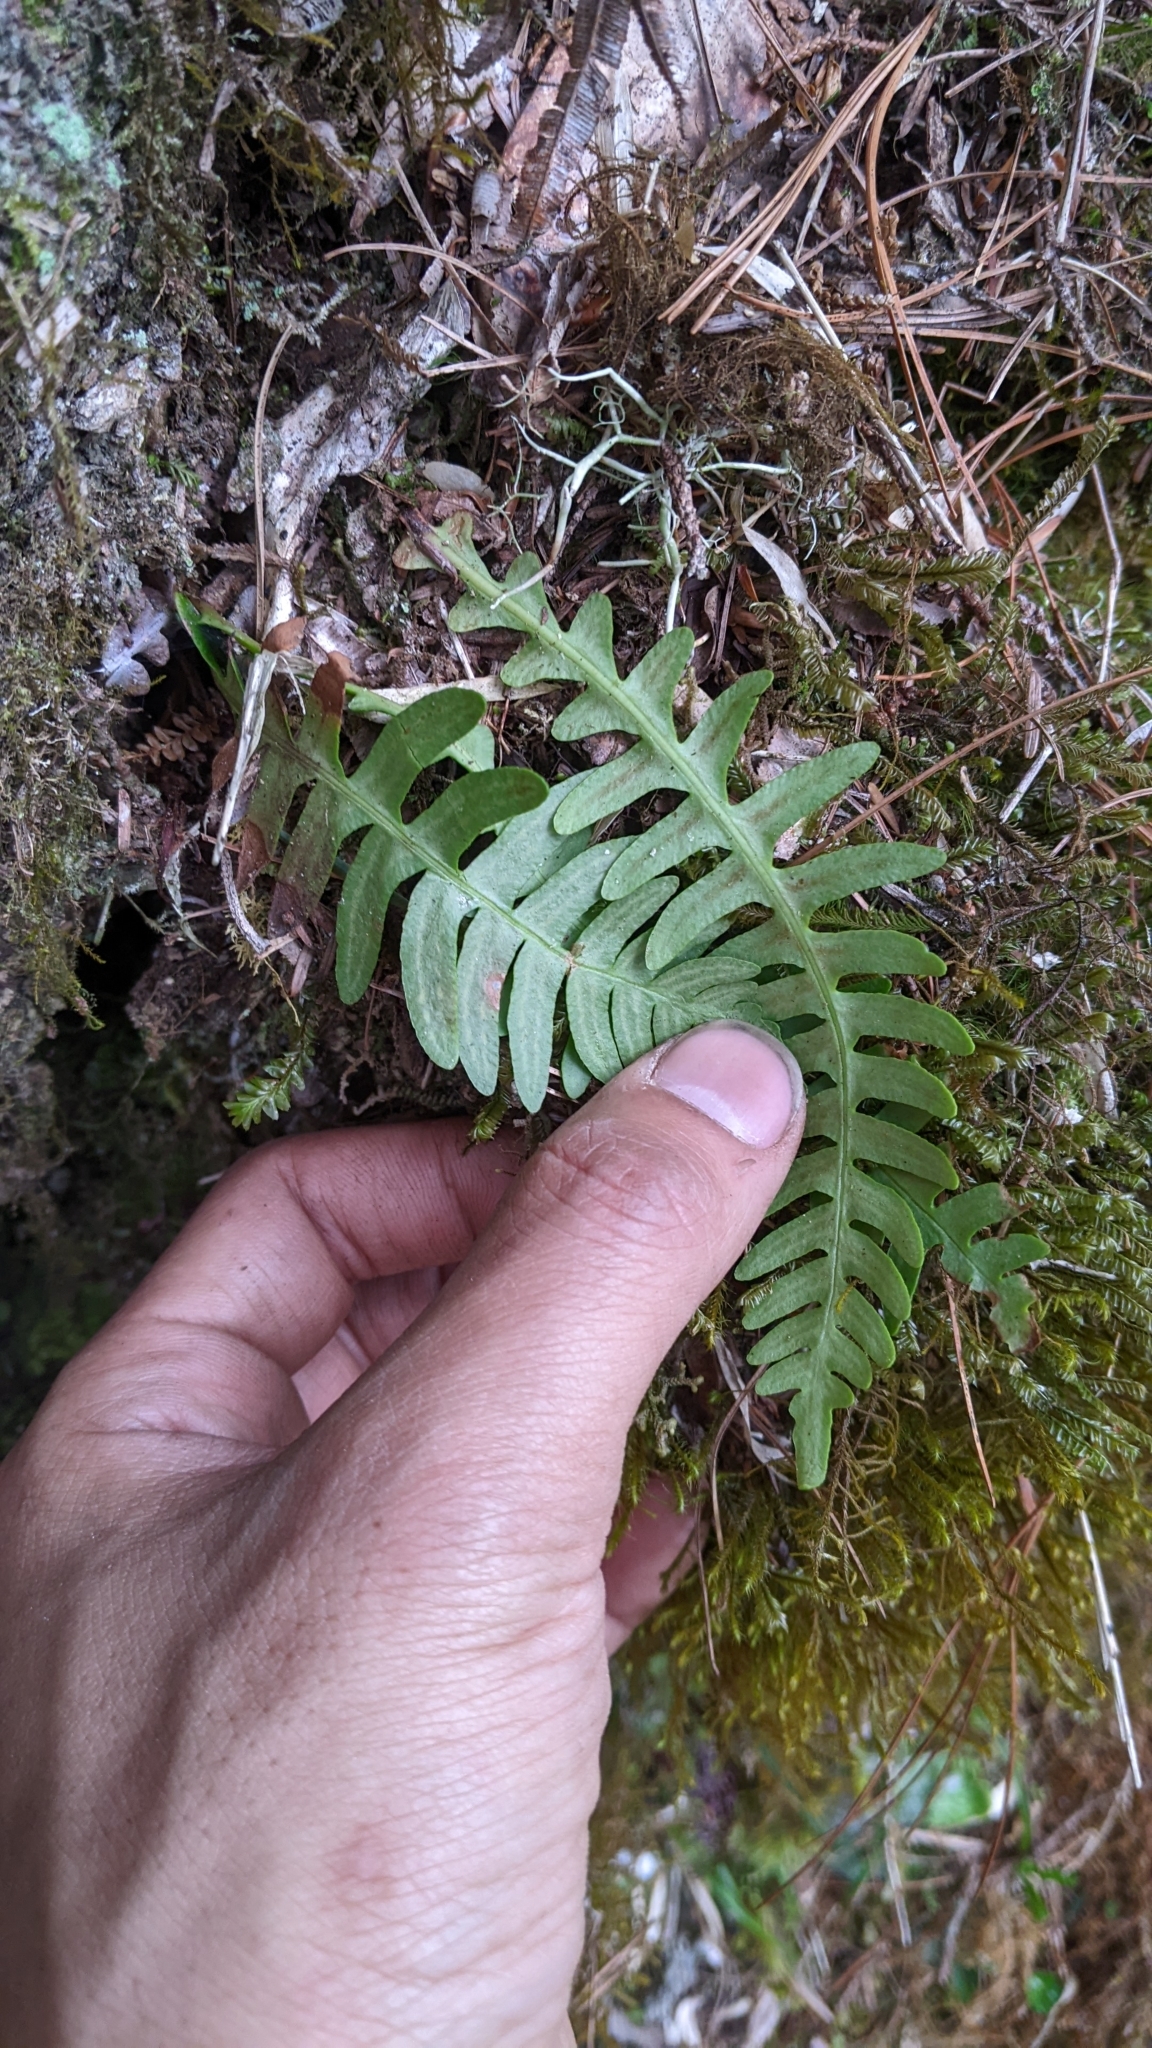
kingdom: Plantae
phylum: Tracheophyta
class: Polypodiopsida
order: Polypodiales
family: Blechnaceae
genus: Spicantopsis
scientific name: Spicantopsis hancockii
